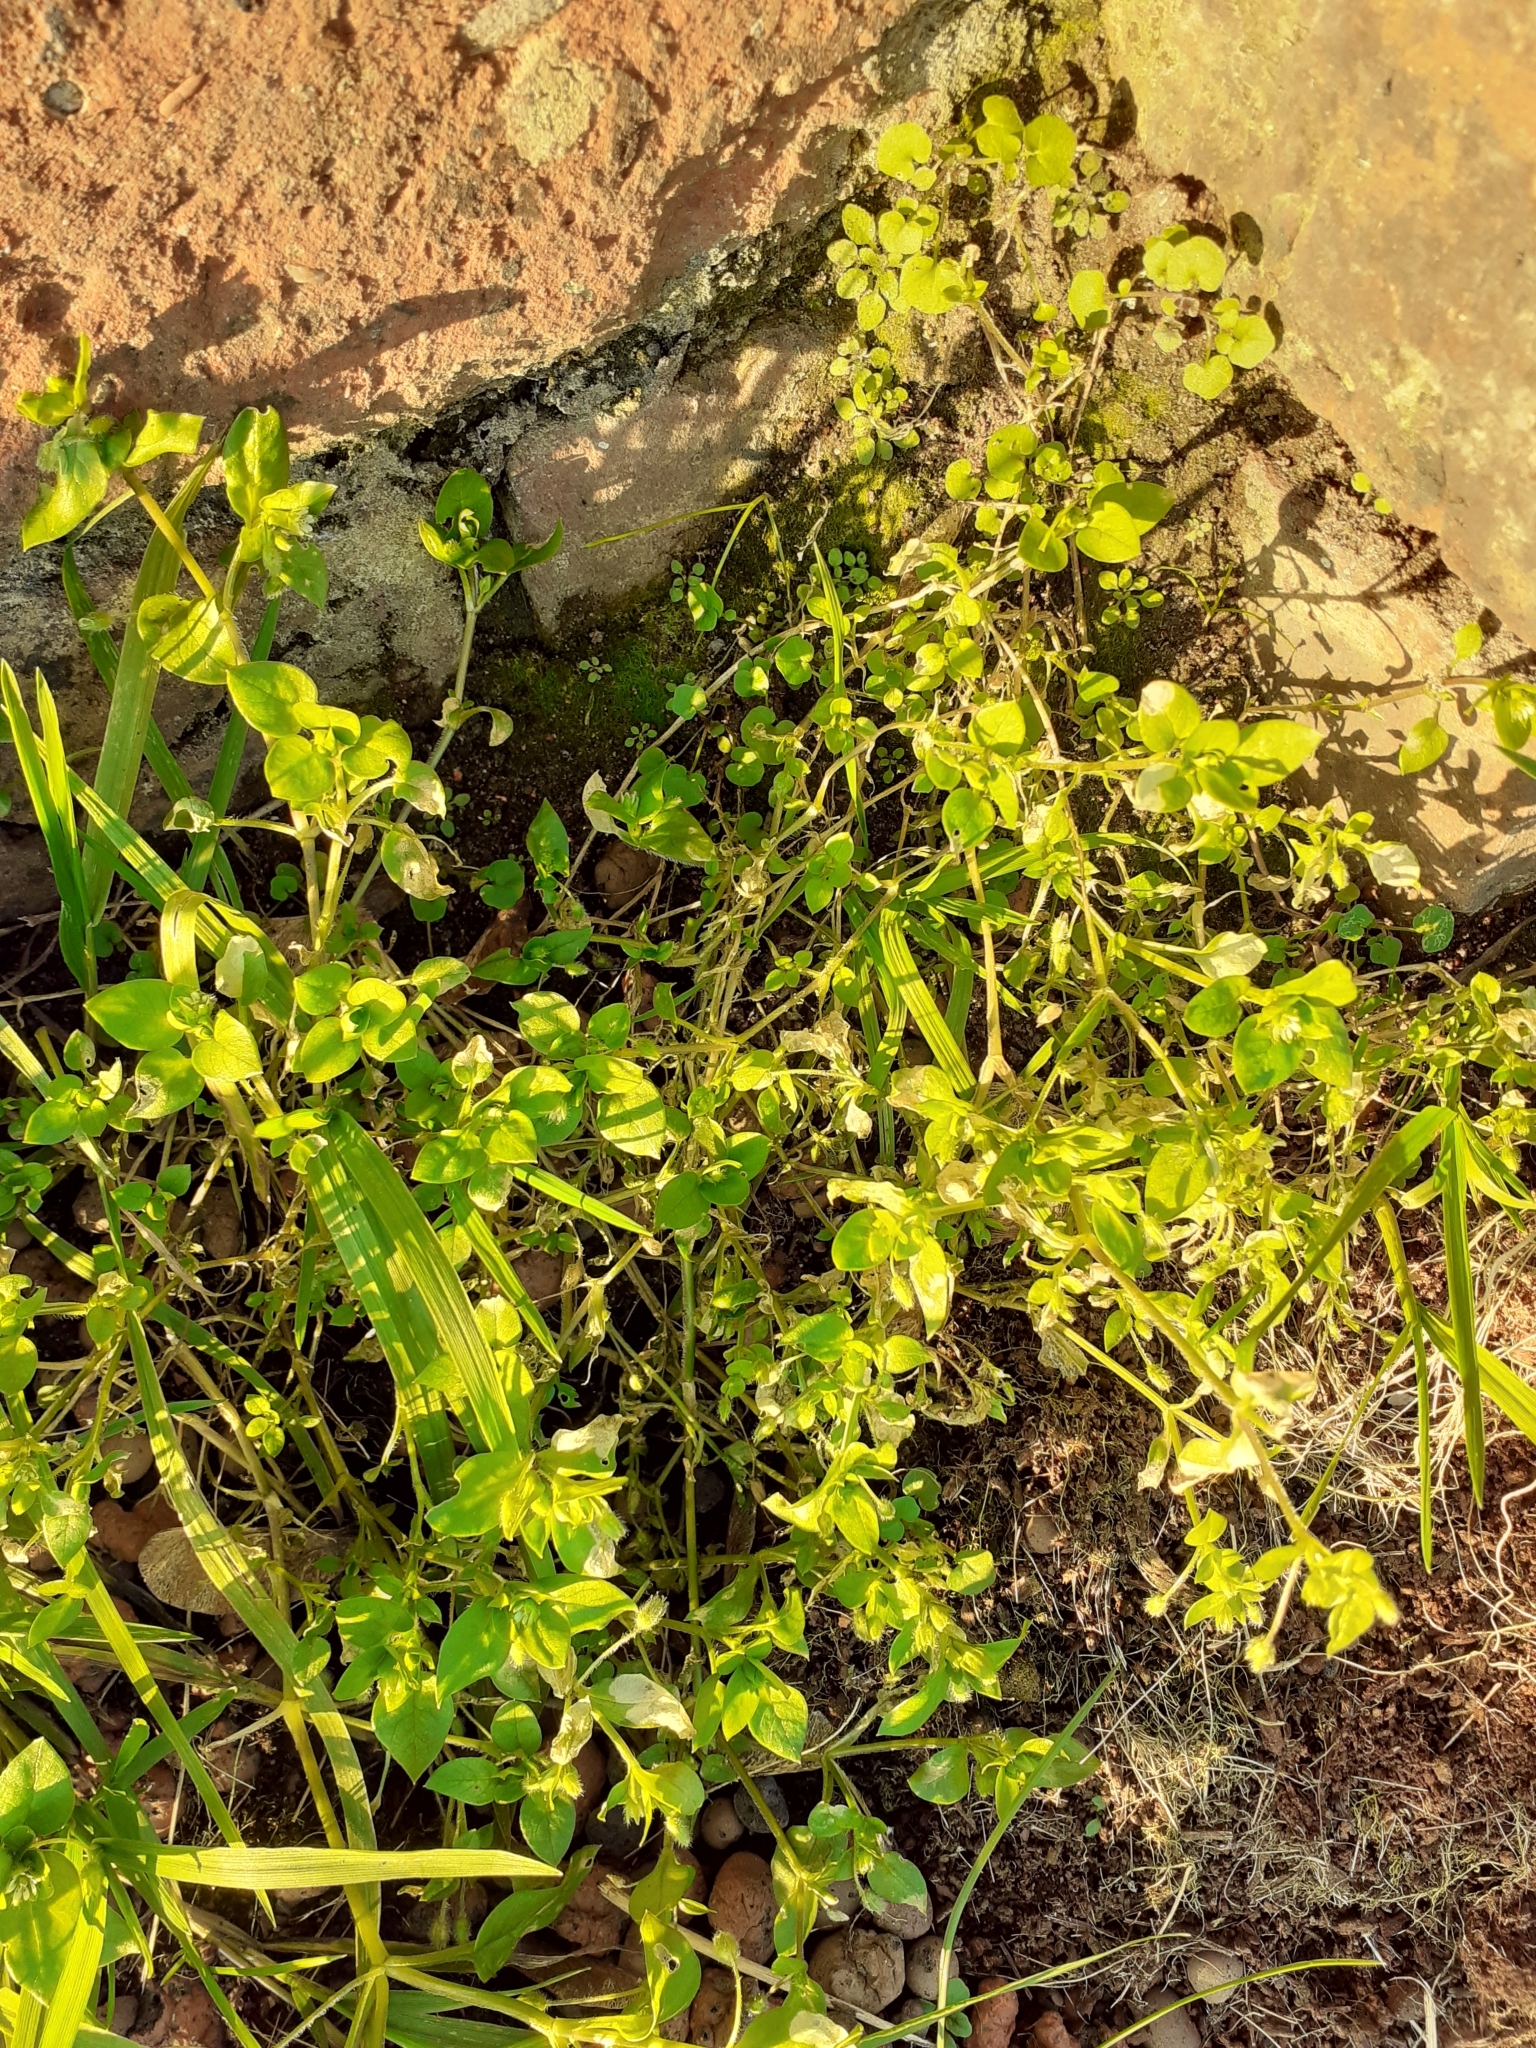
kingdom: Plantae
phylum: Tracheophyta
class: Magnoliopsida
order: Caryophyllales
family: Caryophyllaceae
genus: Stellaria
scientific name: Stellaria media
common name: Common chickweed
